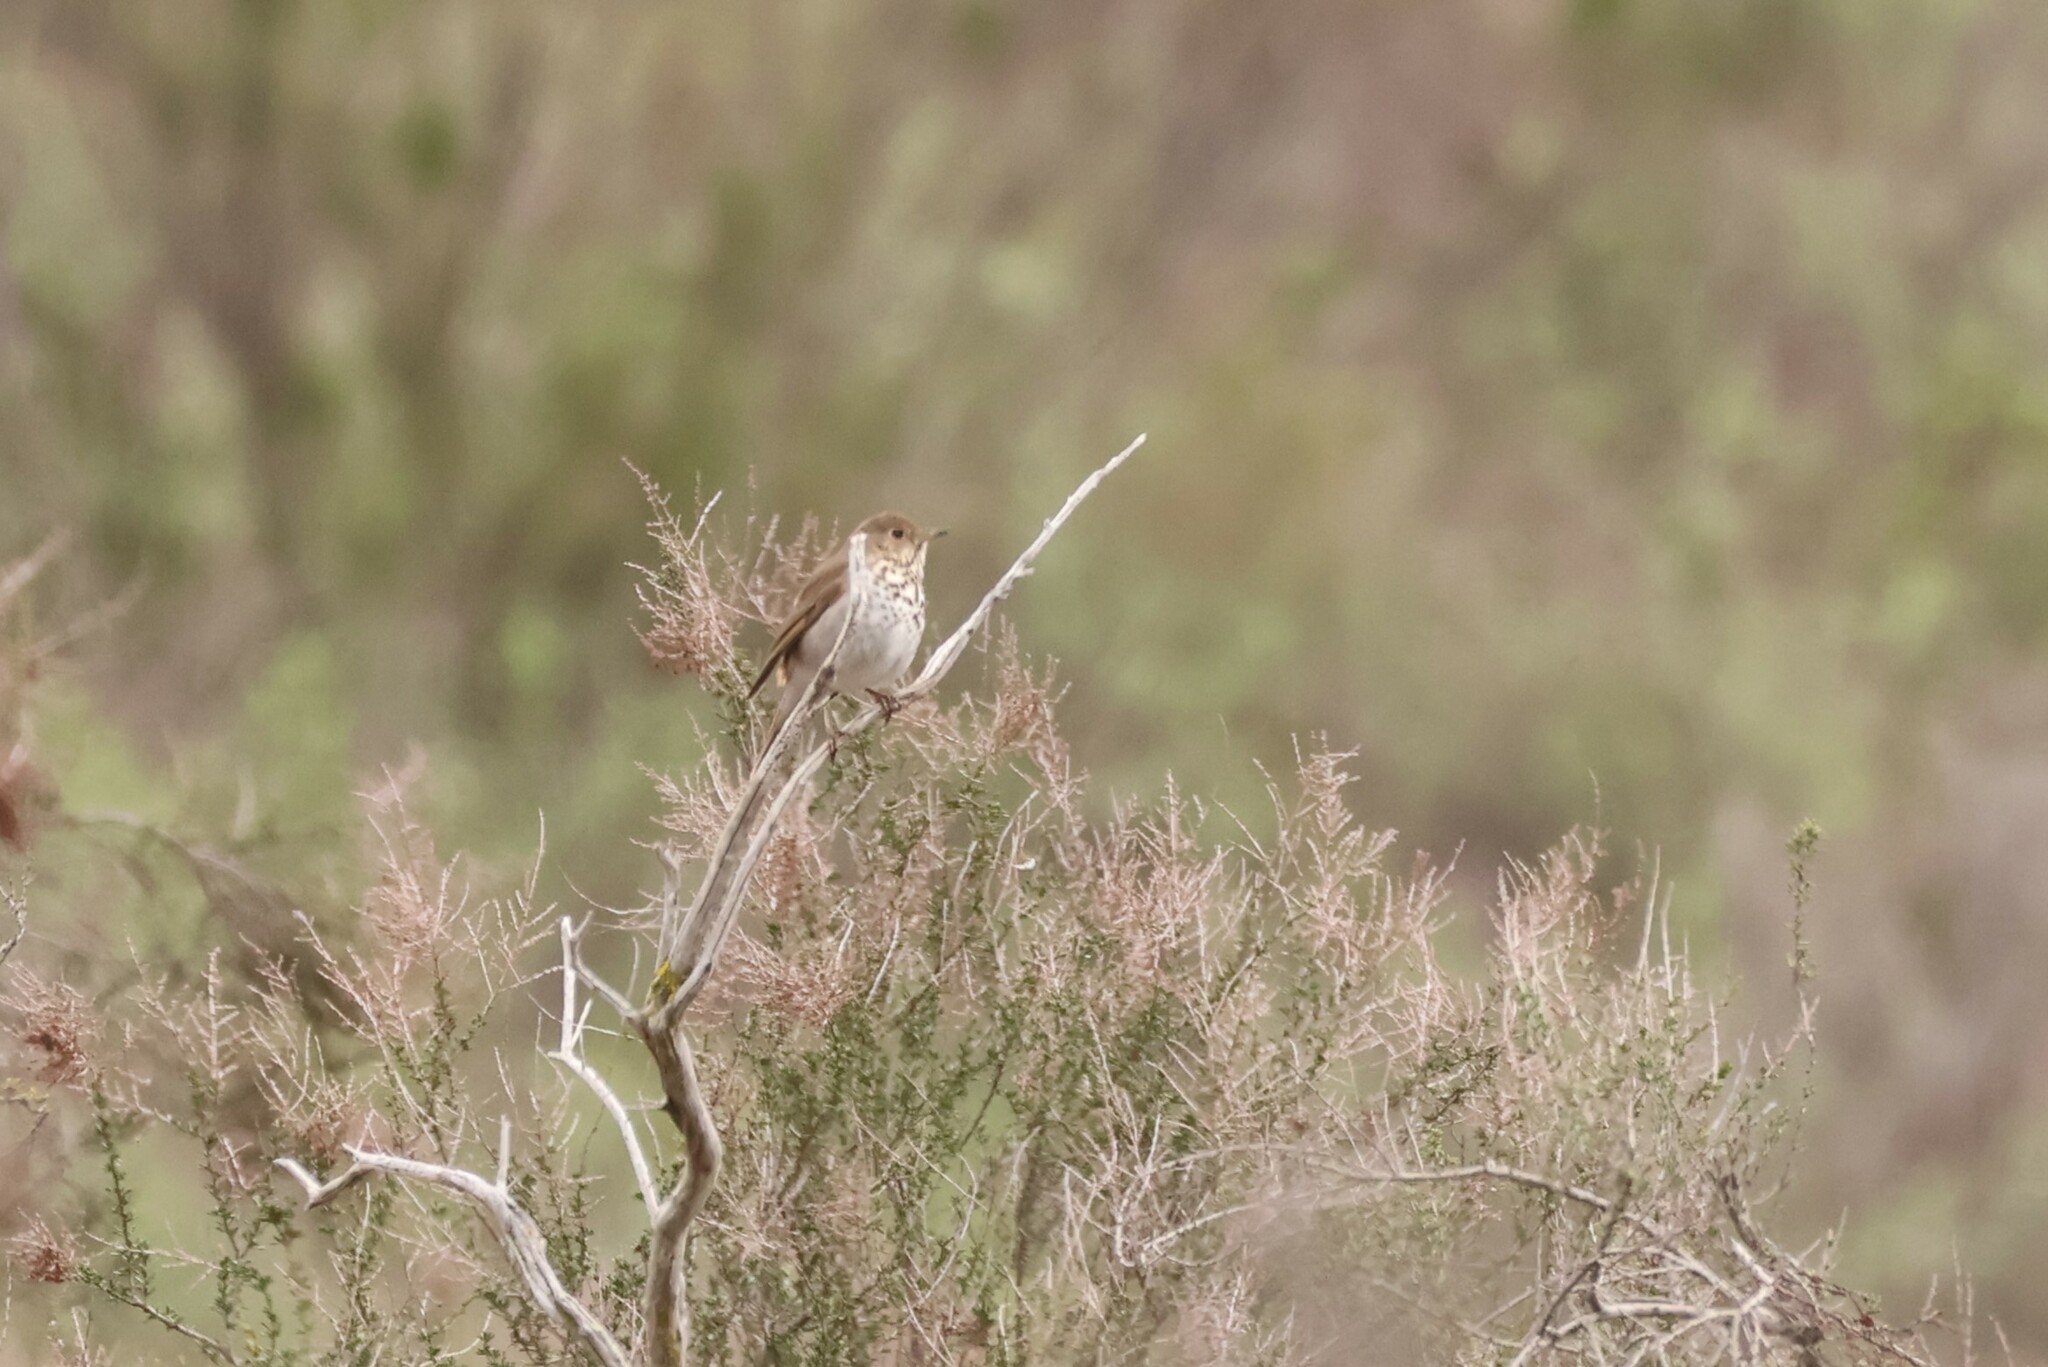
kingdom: Animalia
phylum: Chordata
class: Aves
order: Passeriformes
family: Turdidae
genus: Catharus
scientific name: Catharus guttatus
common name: Hermit thrush
